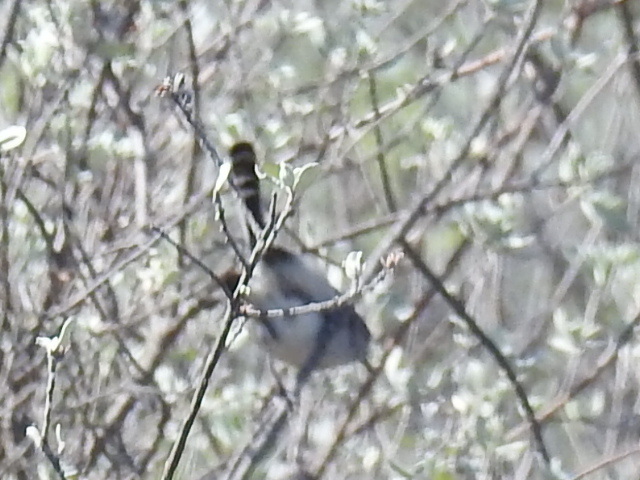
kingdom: Animalia
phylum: Chordata
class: Aves
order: Passeriformes
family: Polioptilidae
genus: Polioptila
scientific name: Polioptila melanura
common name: Black-tailed gnatcatcher
